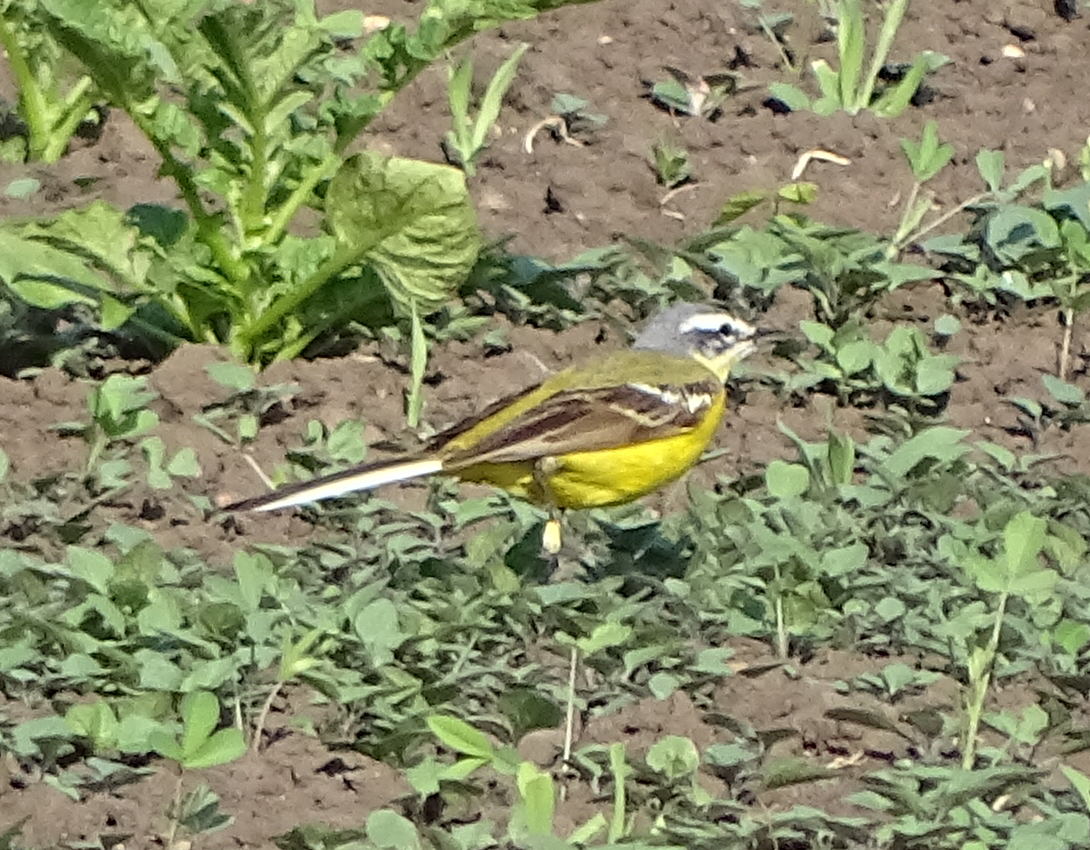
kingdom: Animalia
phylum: Chordata
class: Aves
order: Passeriformes
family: Motacillidae
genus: Motacilla
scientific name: Motacilla flava
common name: Western yellow wagtail
